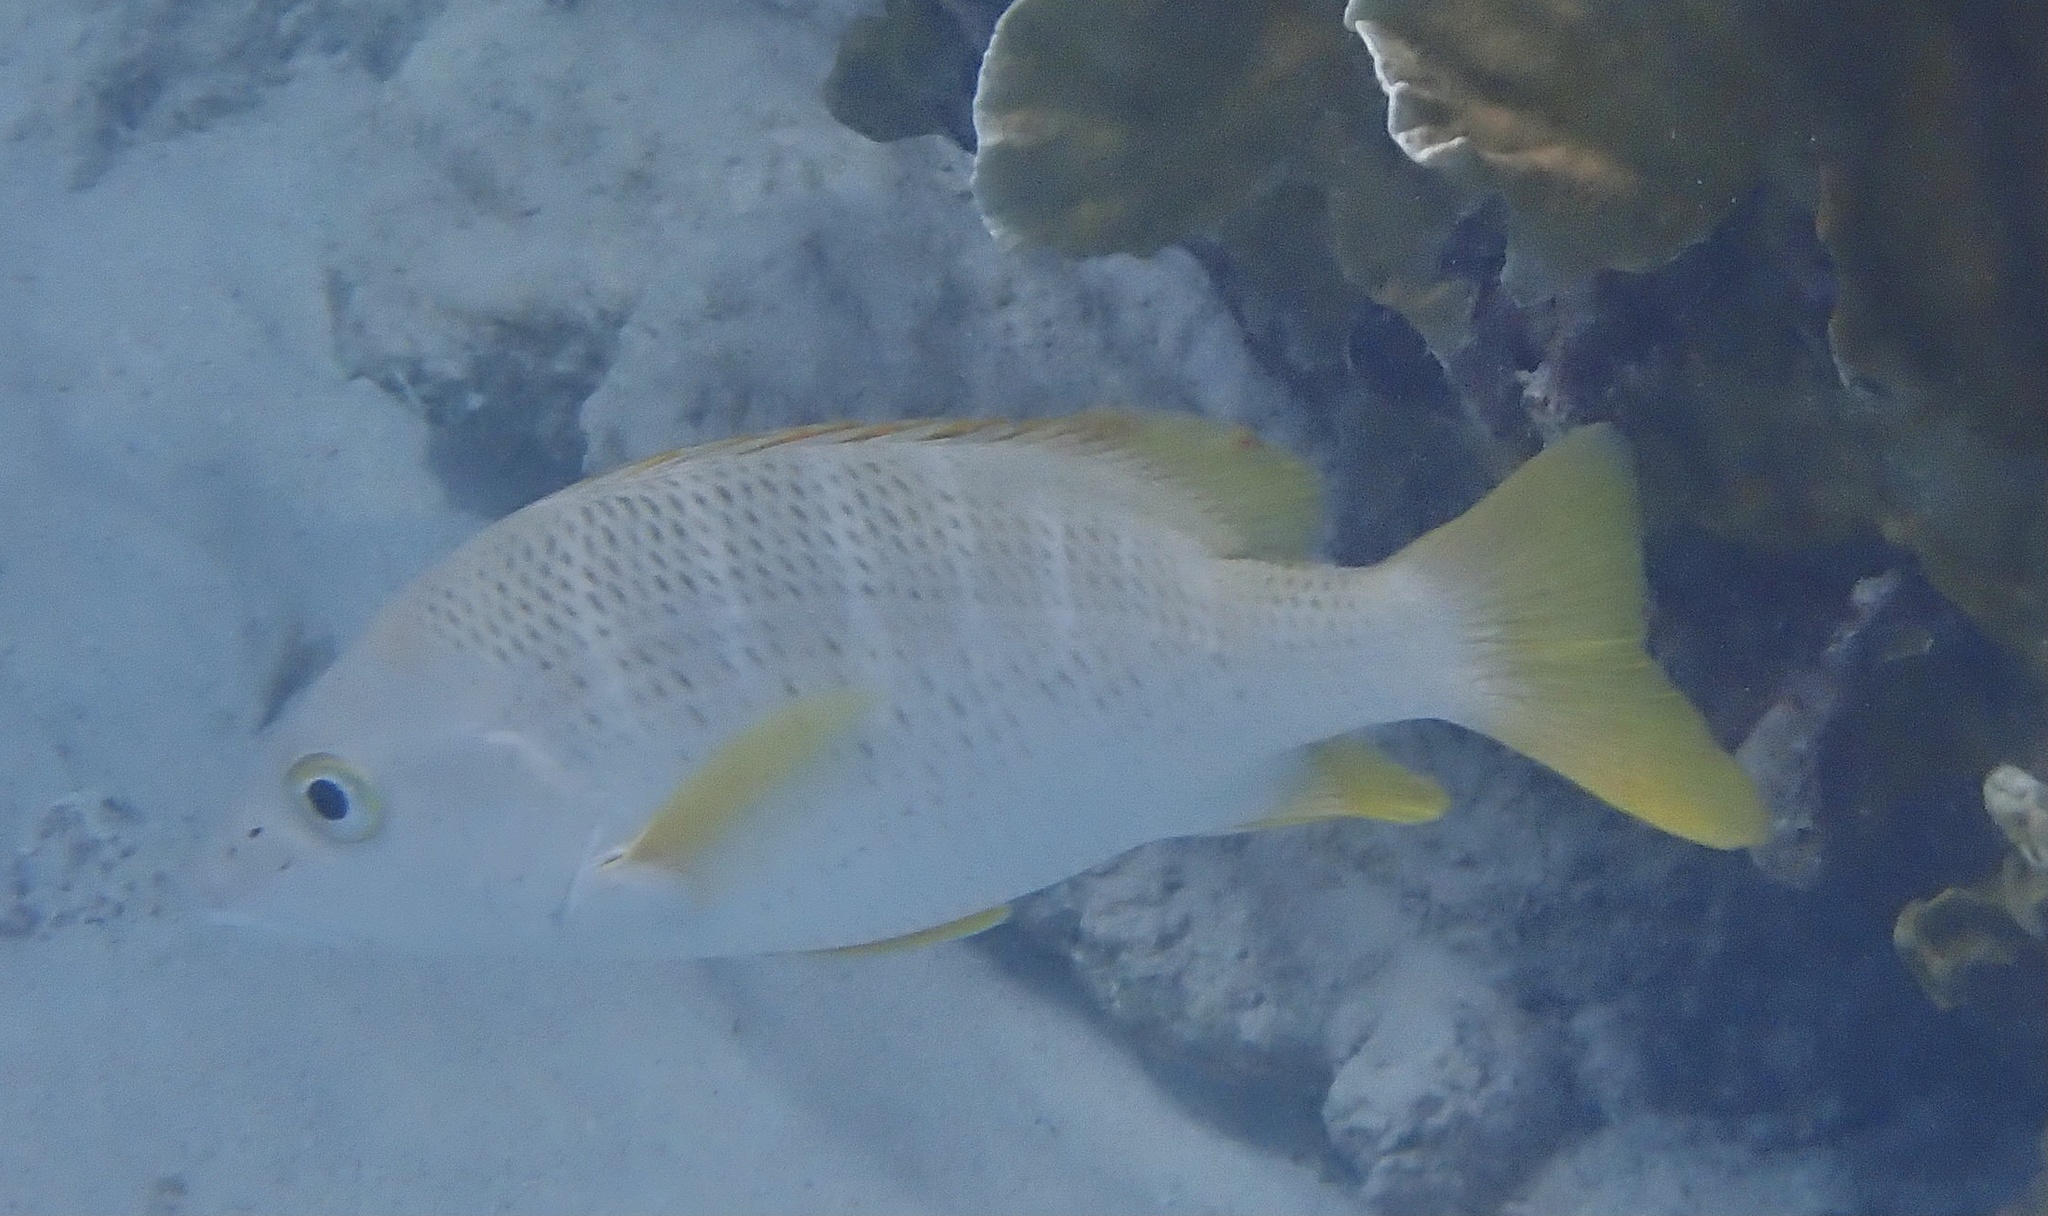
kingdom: Animalia
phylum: Chordata
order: Perciformes
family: Lutjanidae
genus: Lutjanus
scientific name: Lutjanus apodus
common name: Schoolmaster
